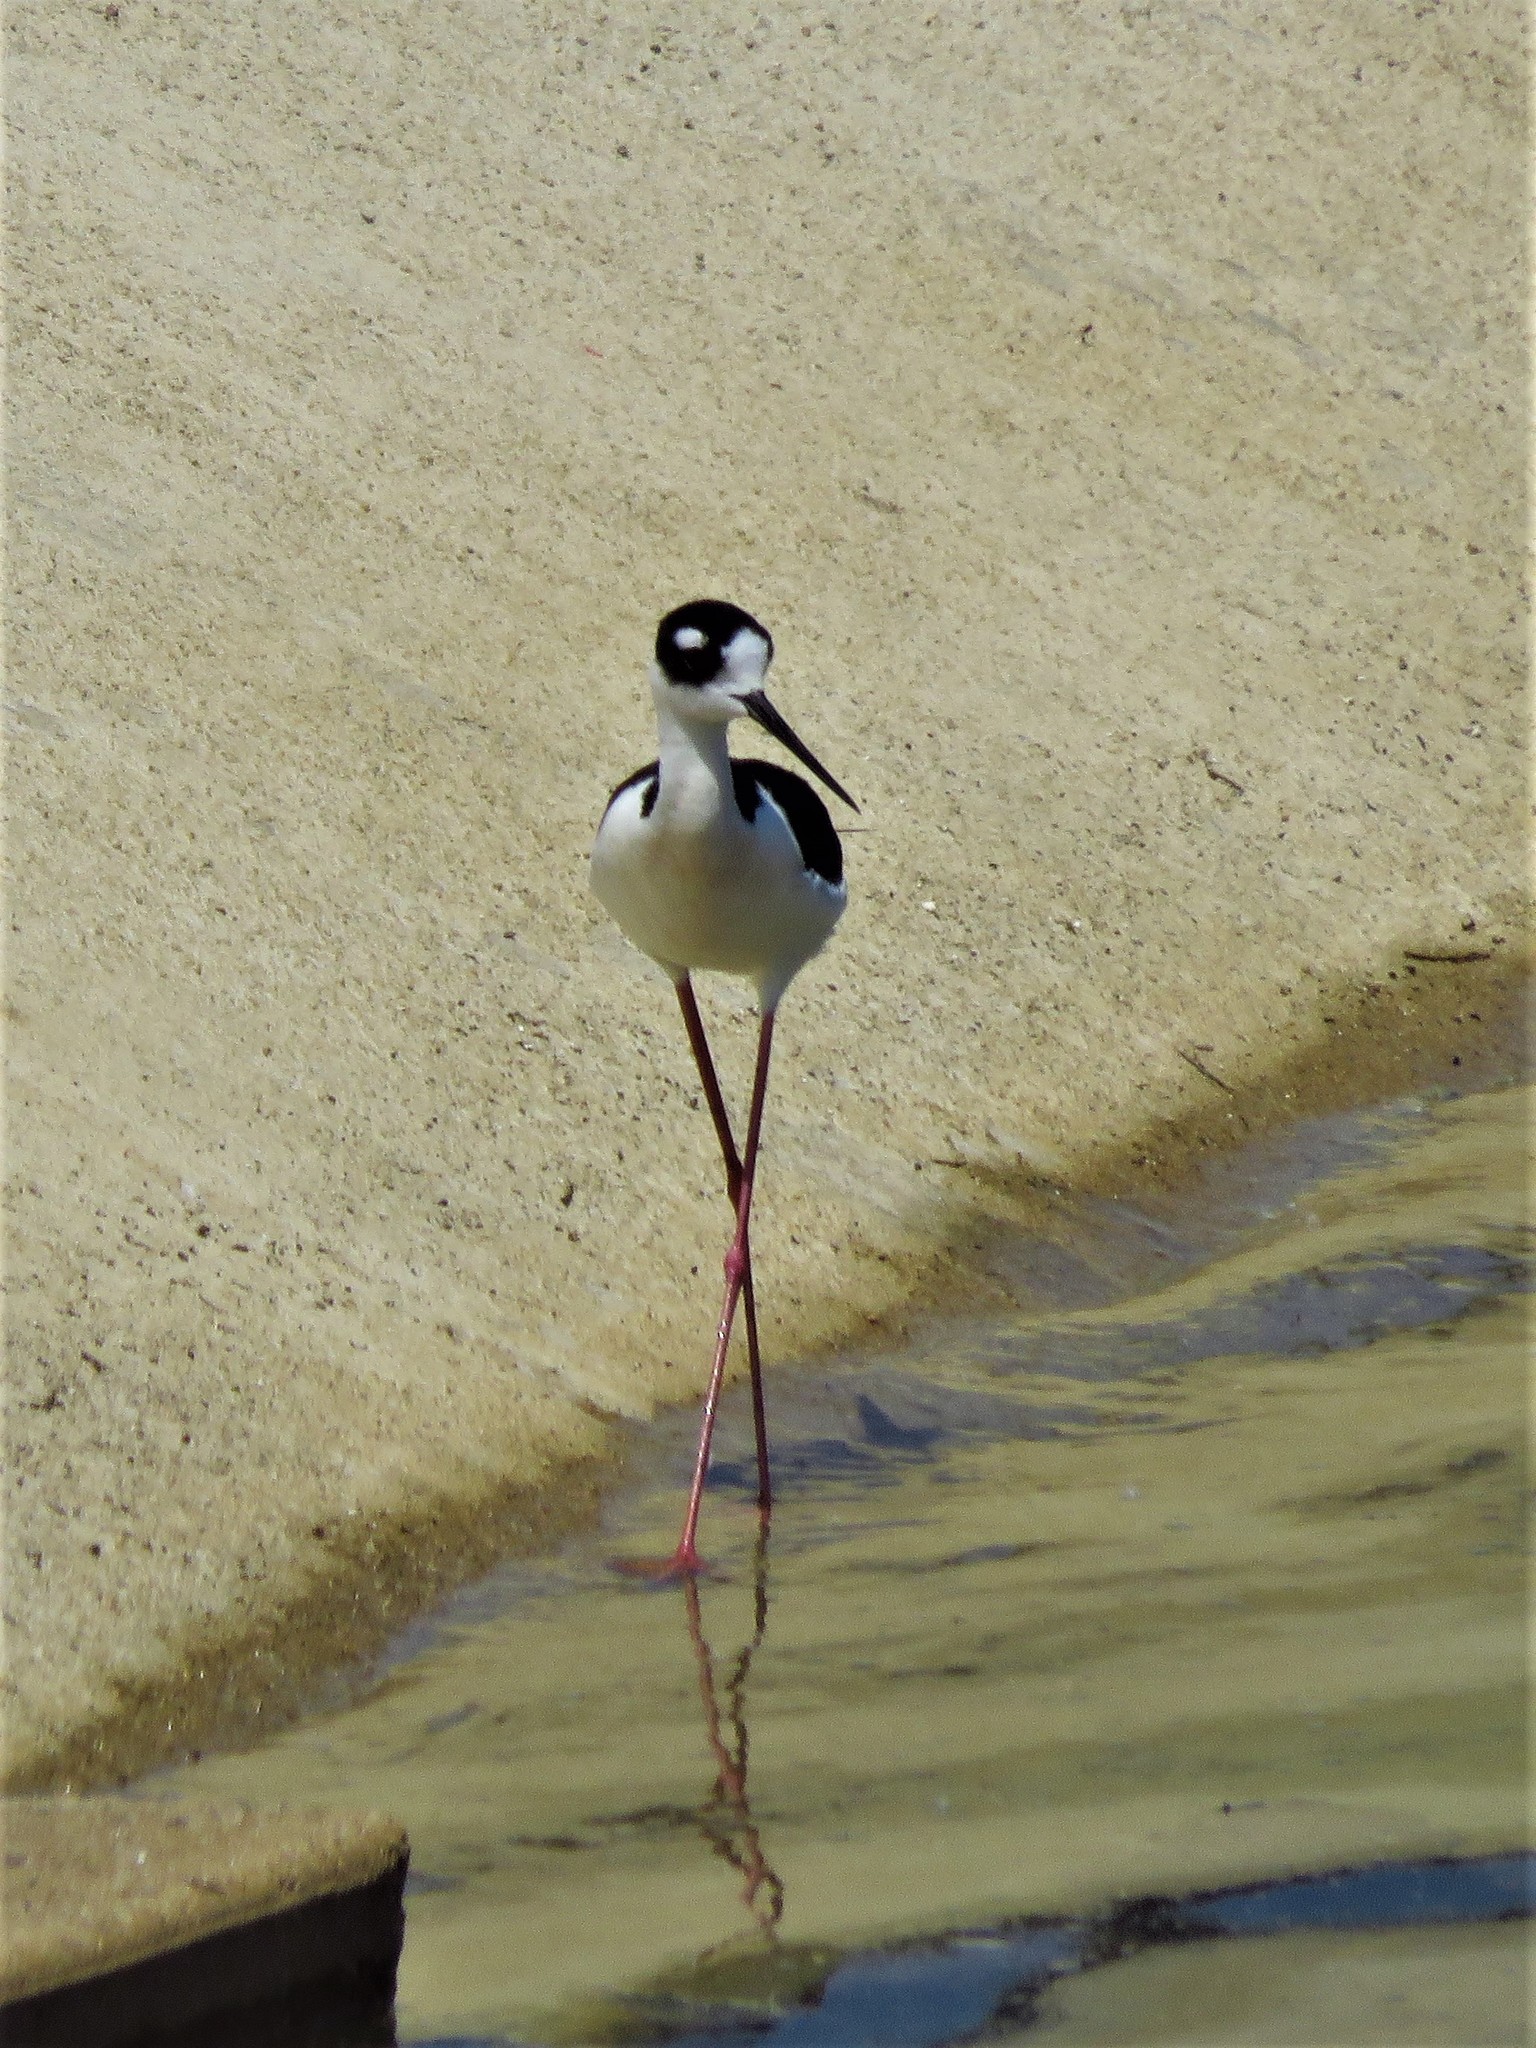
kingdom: Animalia
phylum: Chordata
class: Aves
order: Charadriiformes
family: Recurvirostridae
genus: Himantopus
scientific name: Himantopus mexicanus
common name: Black-necked stilt
